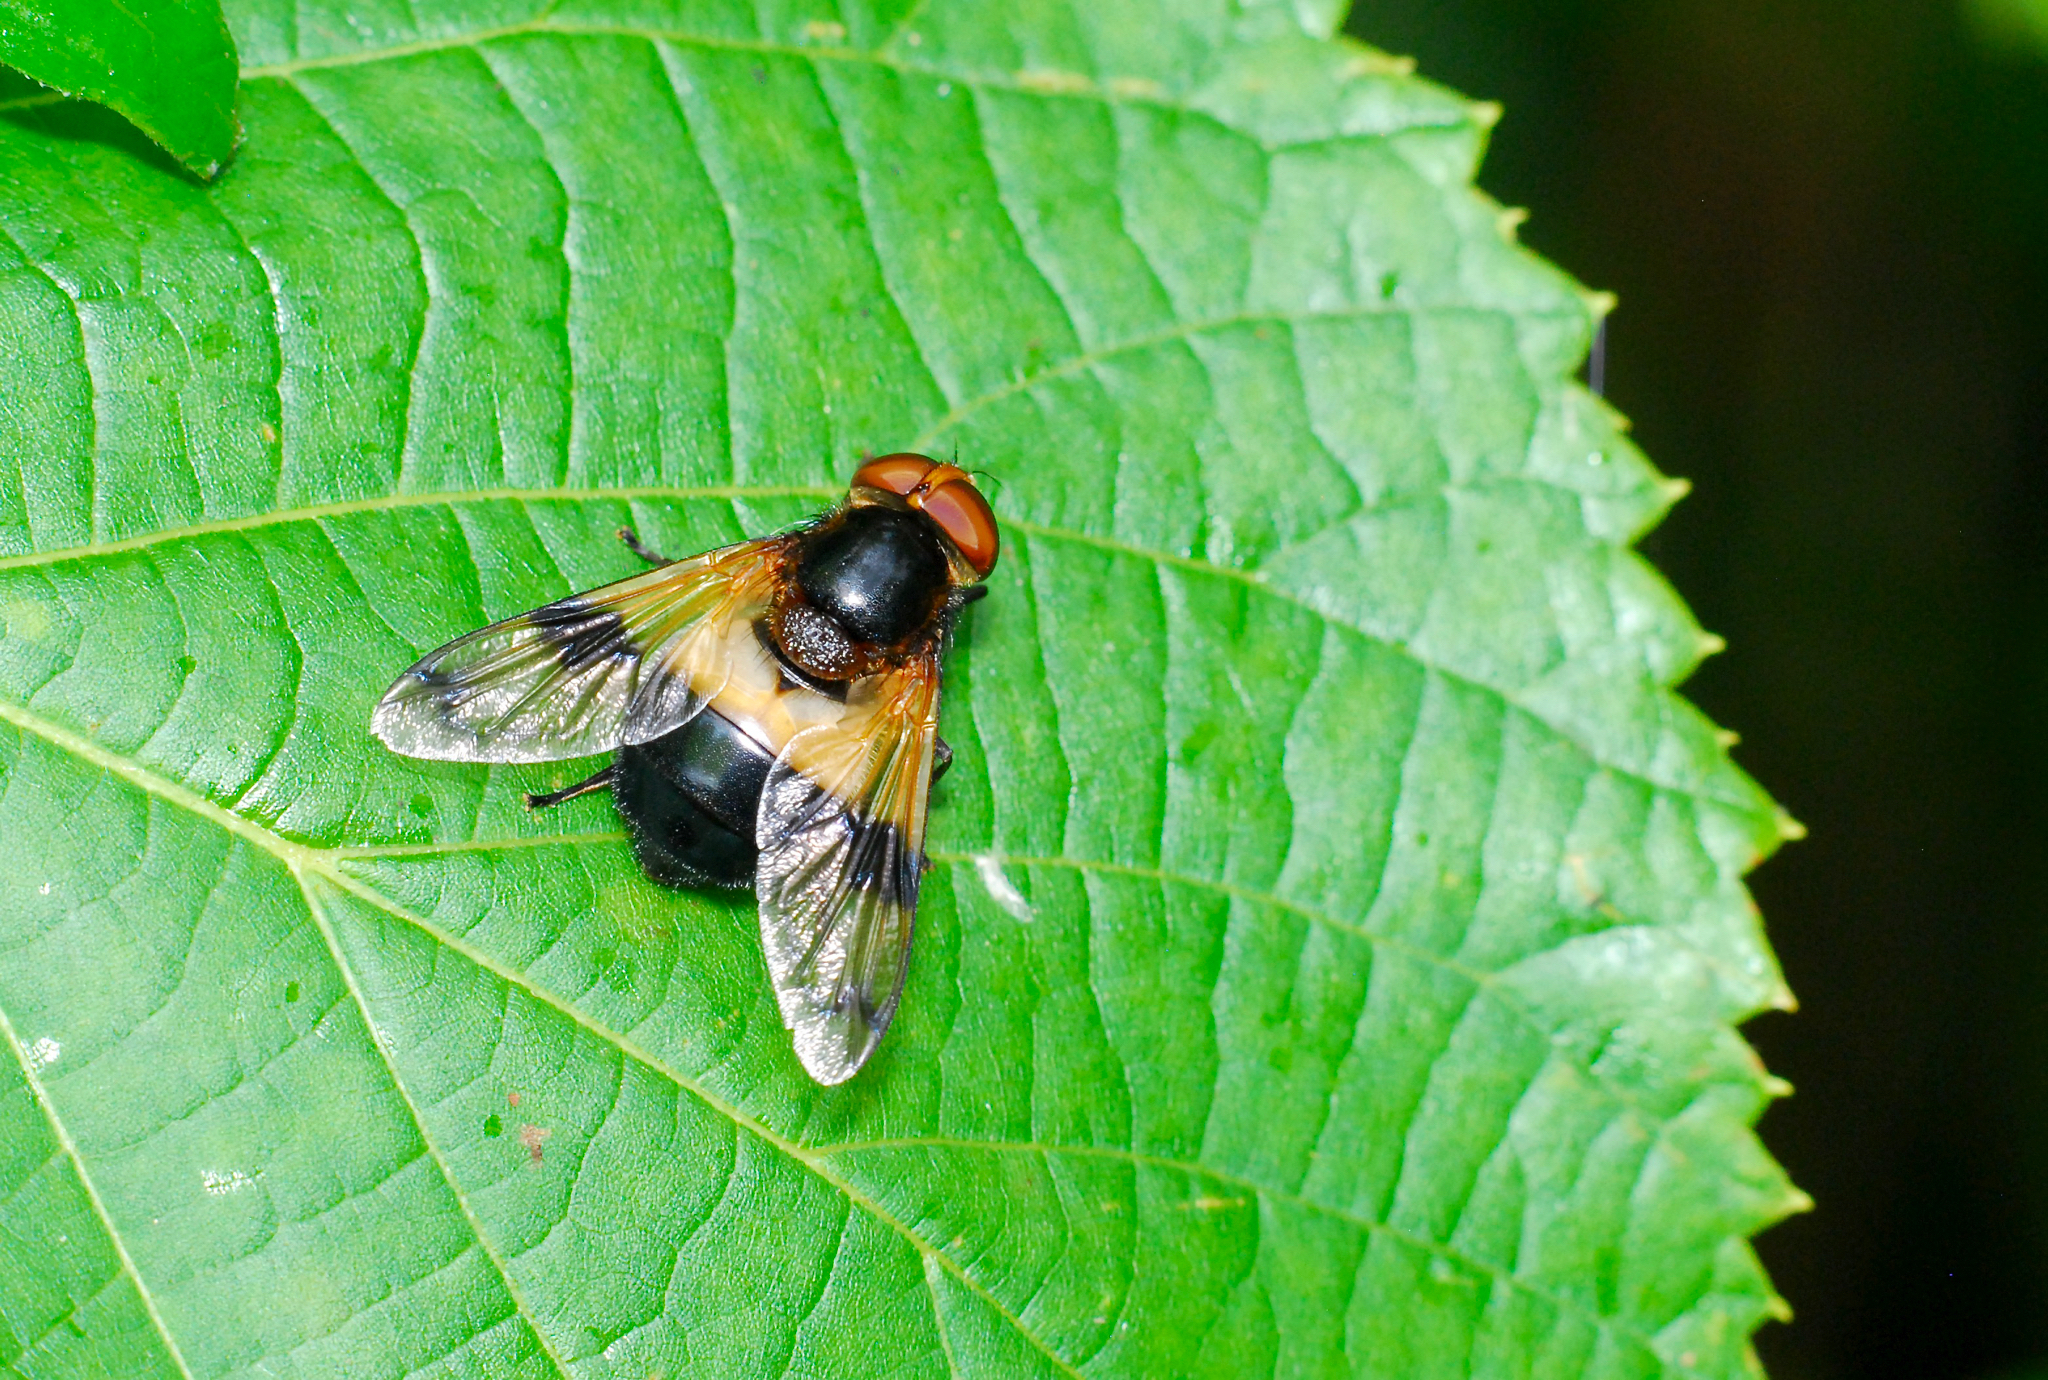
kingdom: Animalia
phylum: Arthropoda
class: Insecta
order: Diptera
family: Syrphidae
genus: Volucella
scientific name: Volucella pellucens
